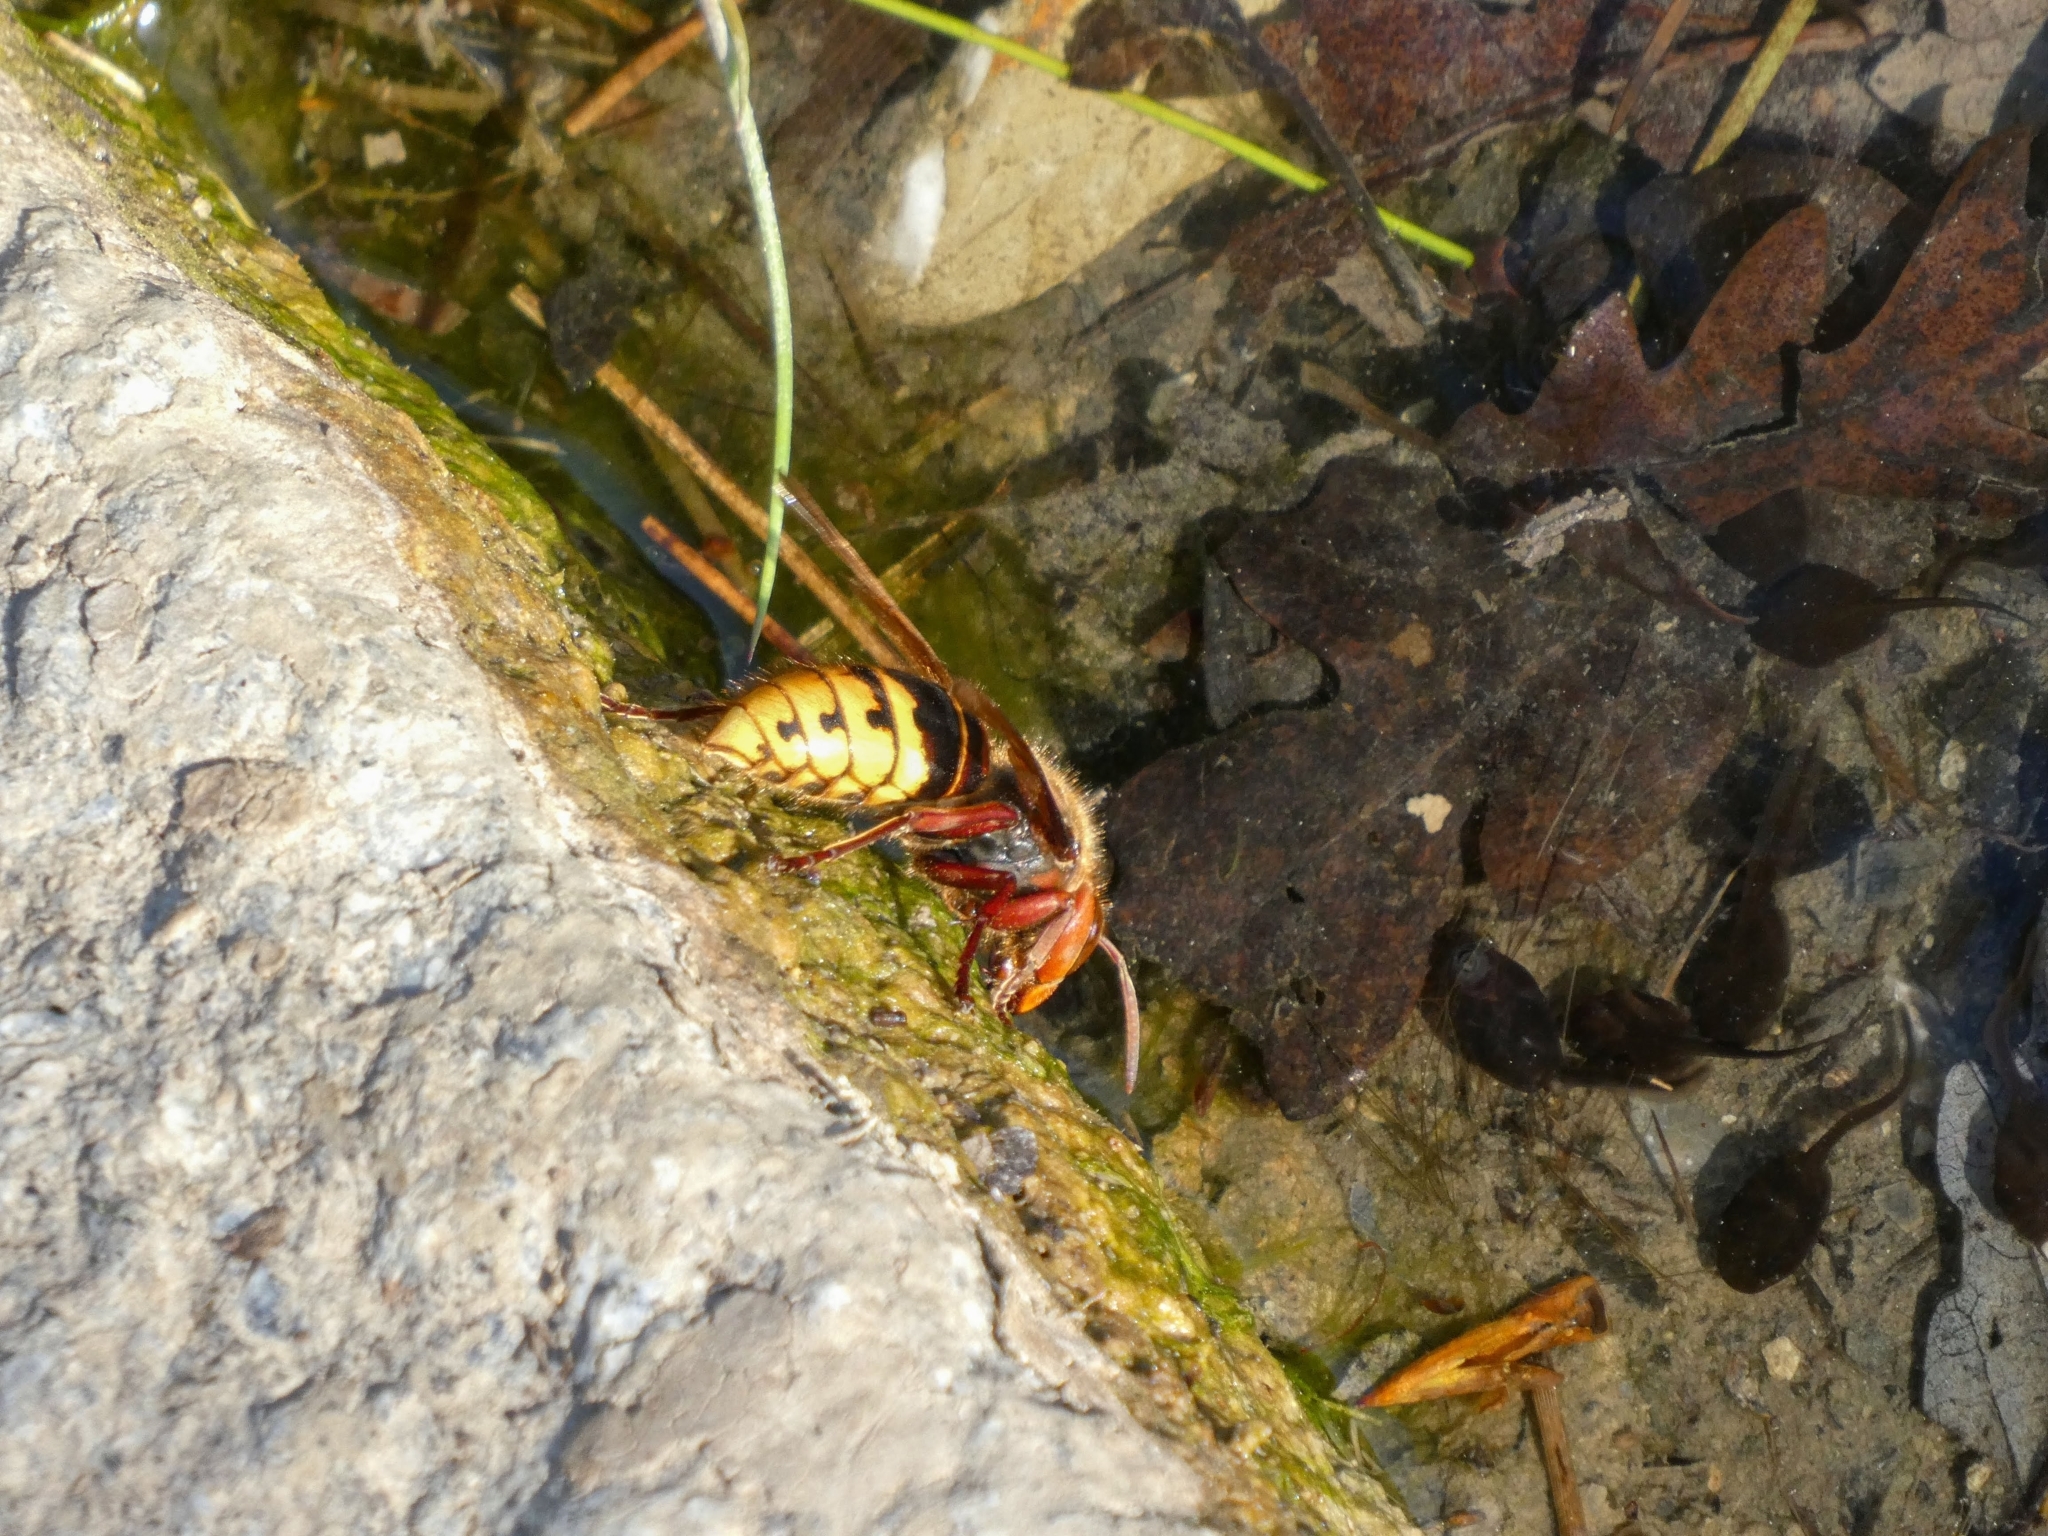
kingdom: Animalia
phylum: Arthropoda
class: Insecta
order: Hymenoptera
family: Vespidae
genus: Vespa
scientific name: Vespa crabro
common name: Hornet
